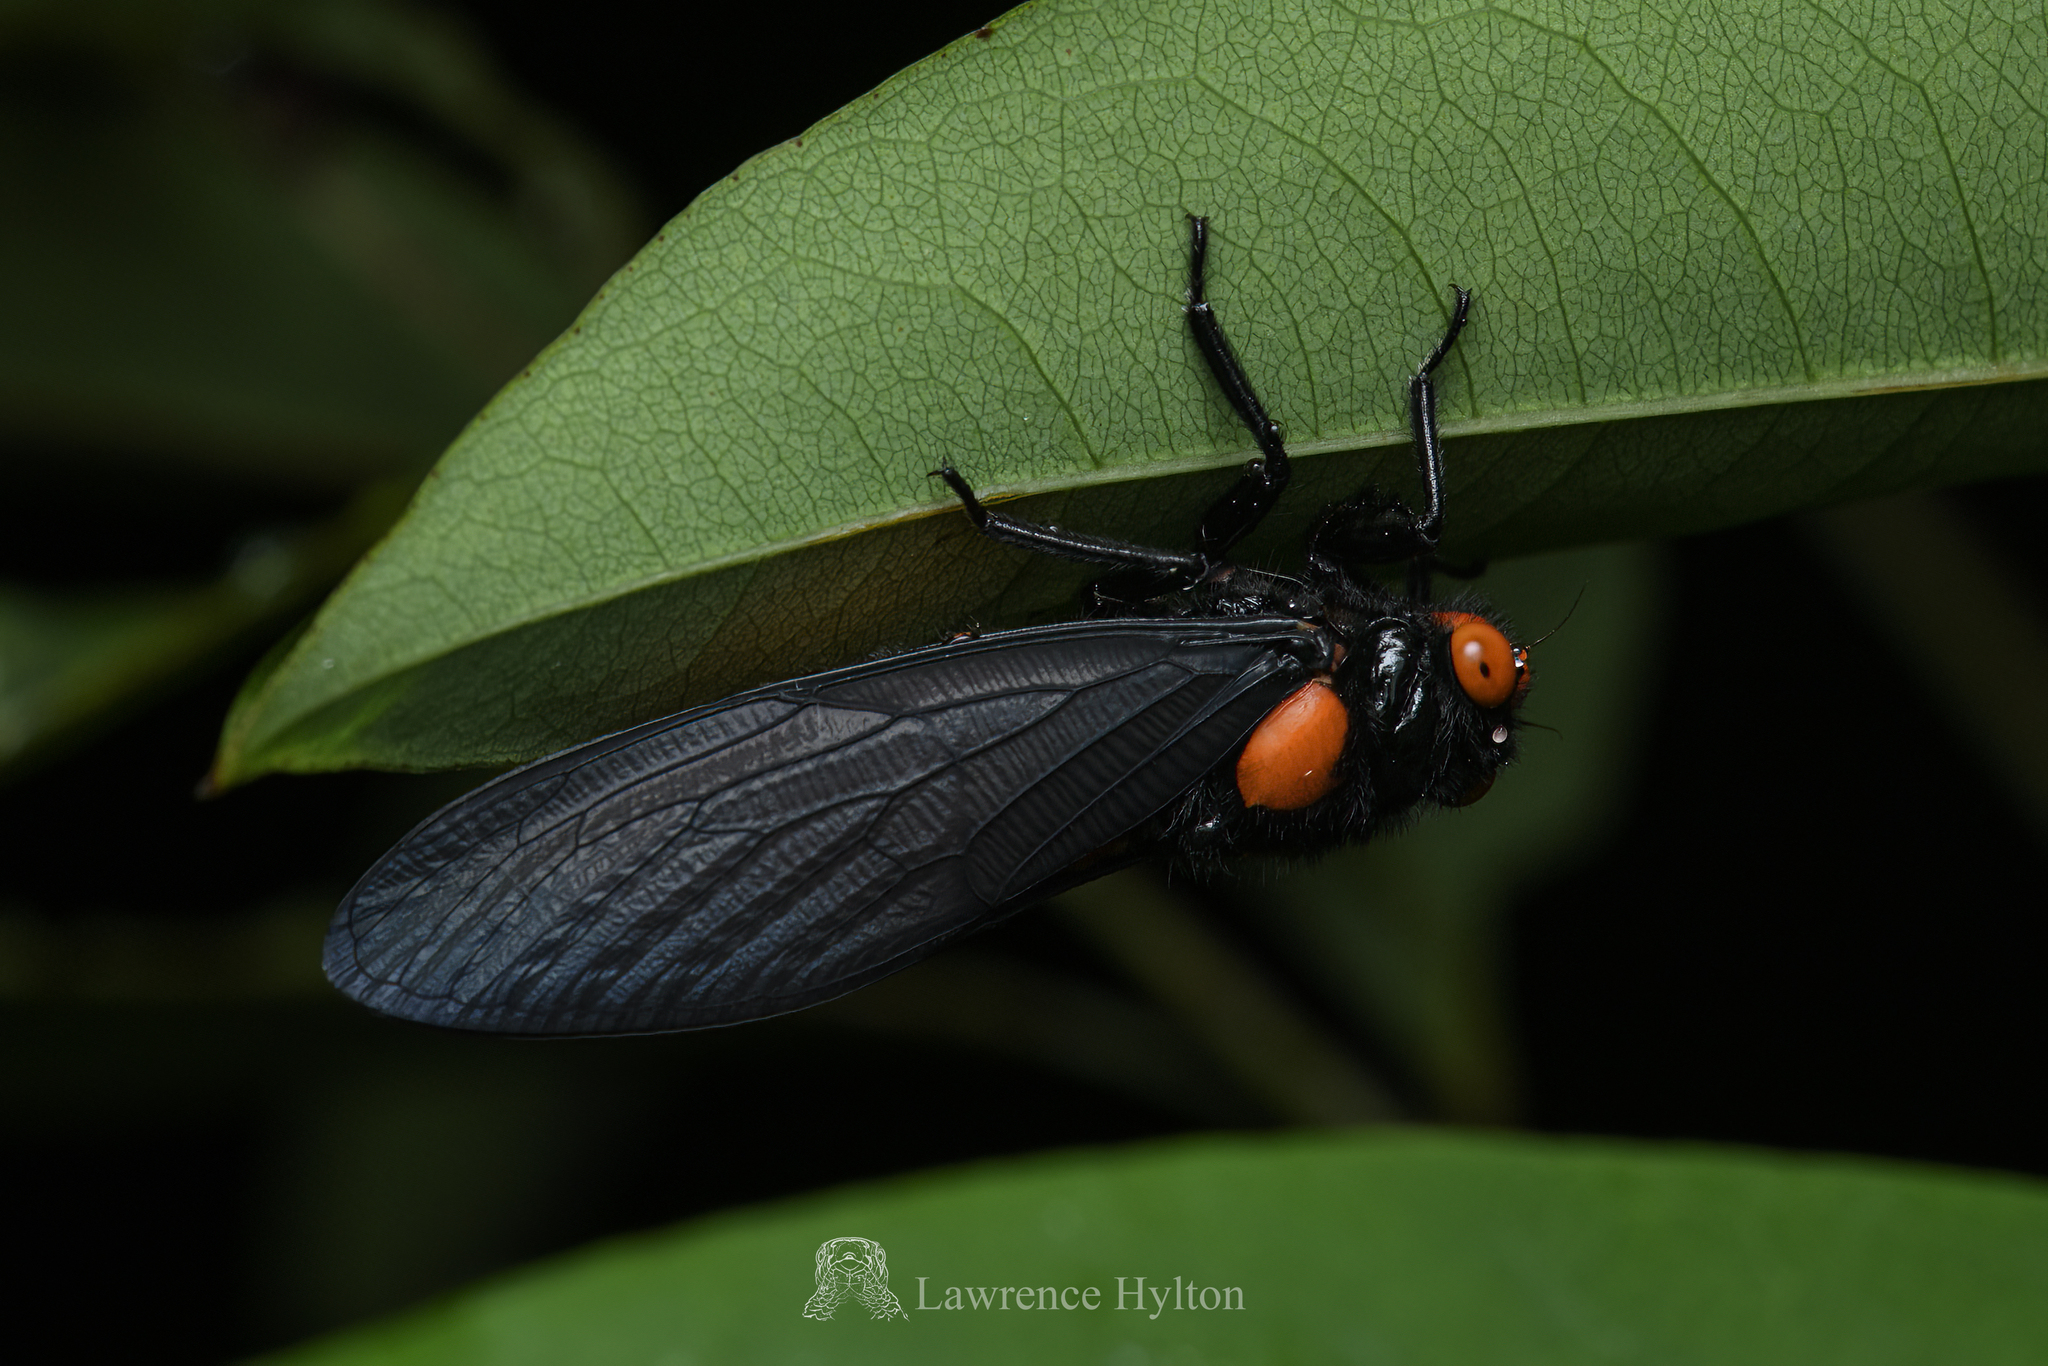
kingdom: Animalia
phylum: Arthropoda
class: Insecta
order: Hemiptera
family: Cicadidae
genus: Huechys
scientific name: Huechys sanguinea
